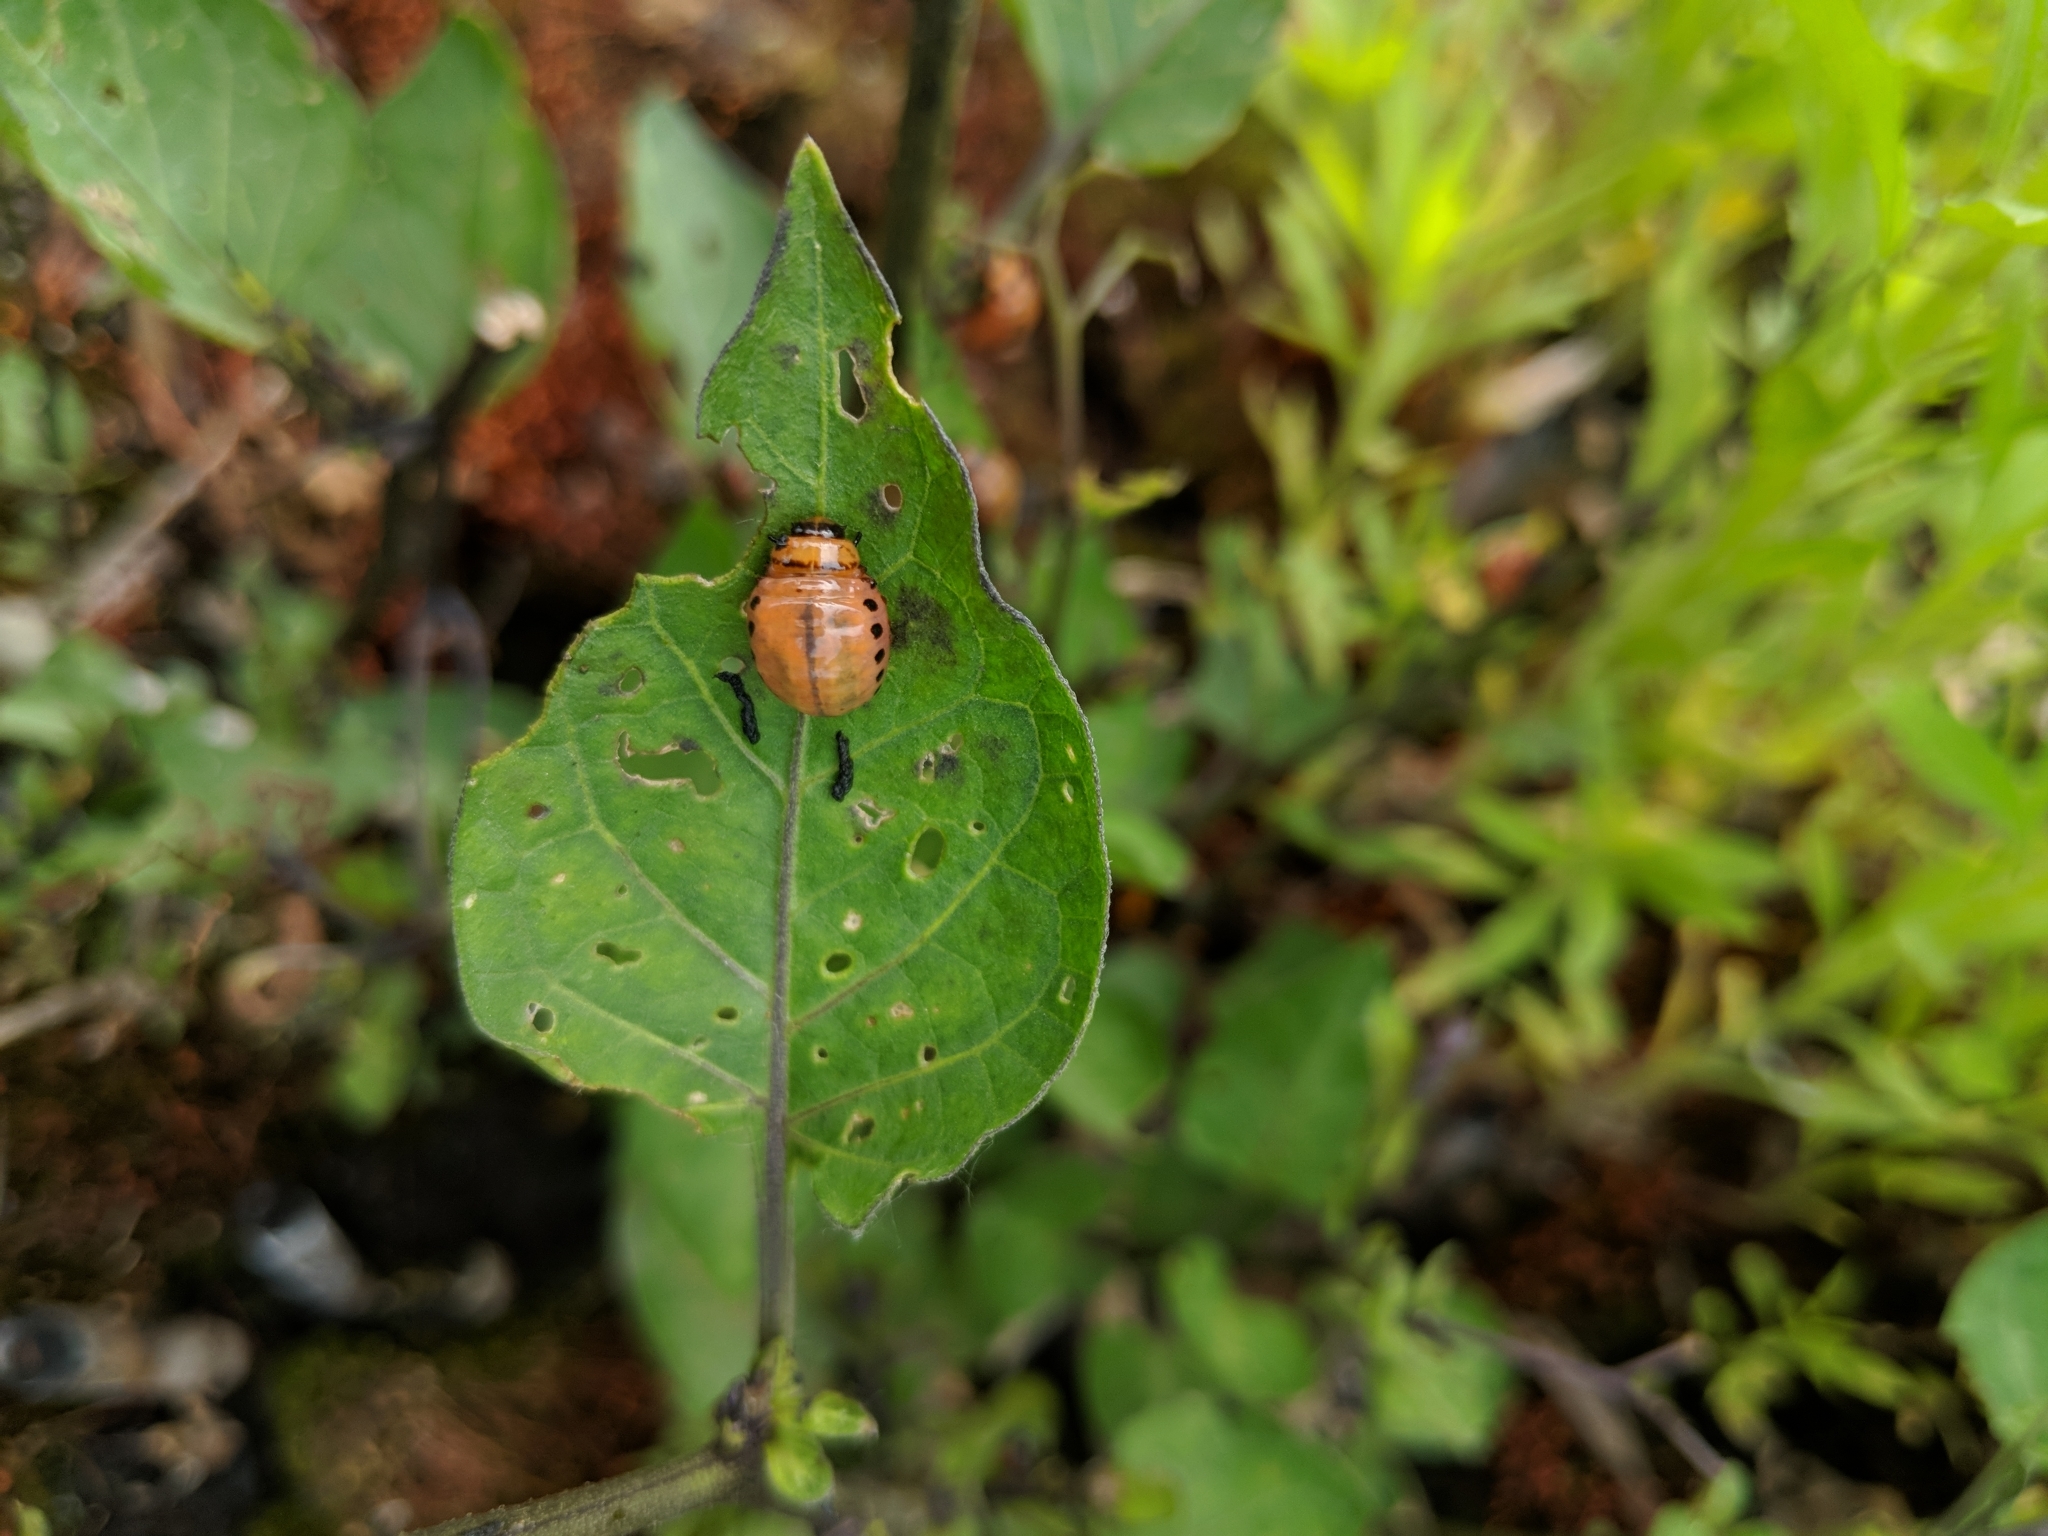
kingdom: Animalia
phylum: Arthropoda
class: Insecta
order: Coleoptera
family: Chrysomelidae
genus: Leptinotarsa
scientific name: Leptinotarsa decemlineata
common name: Colorado potato beetle
